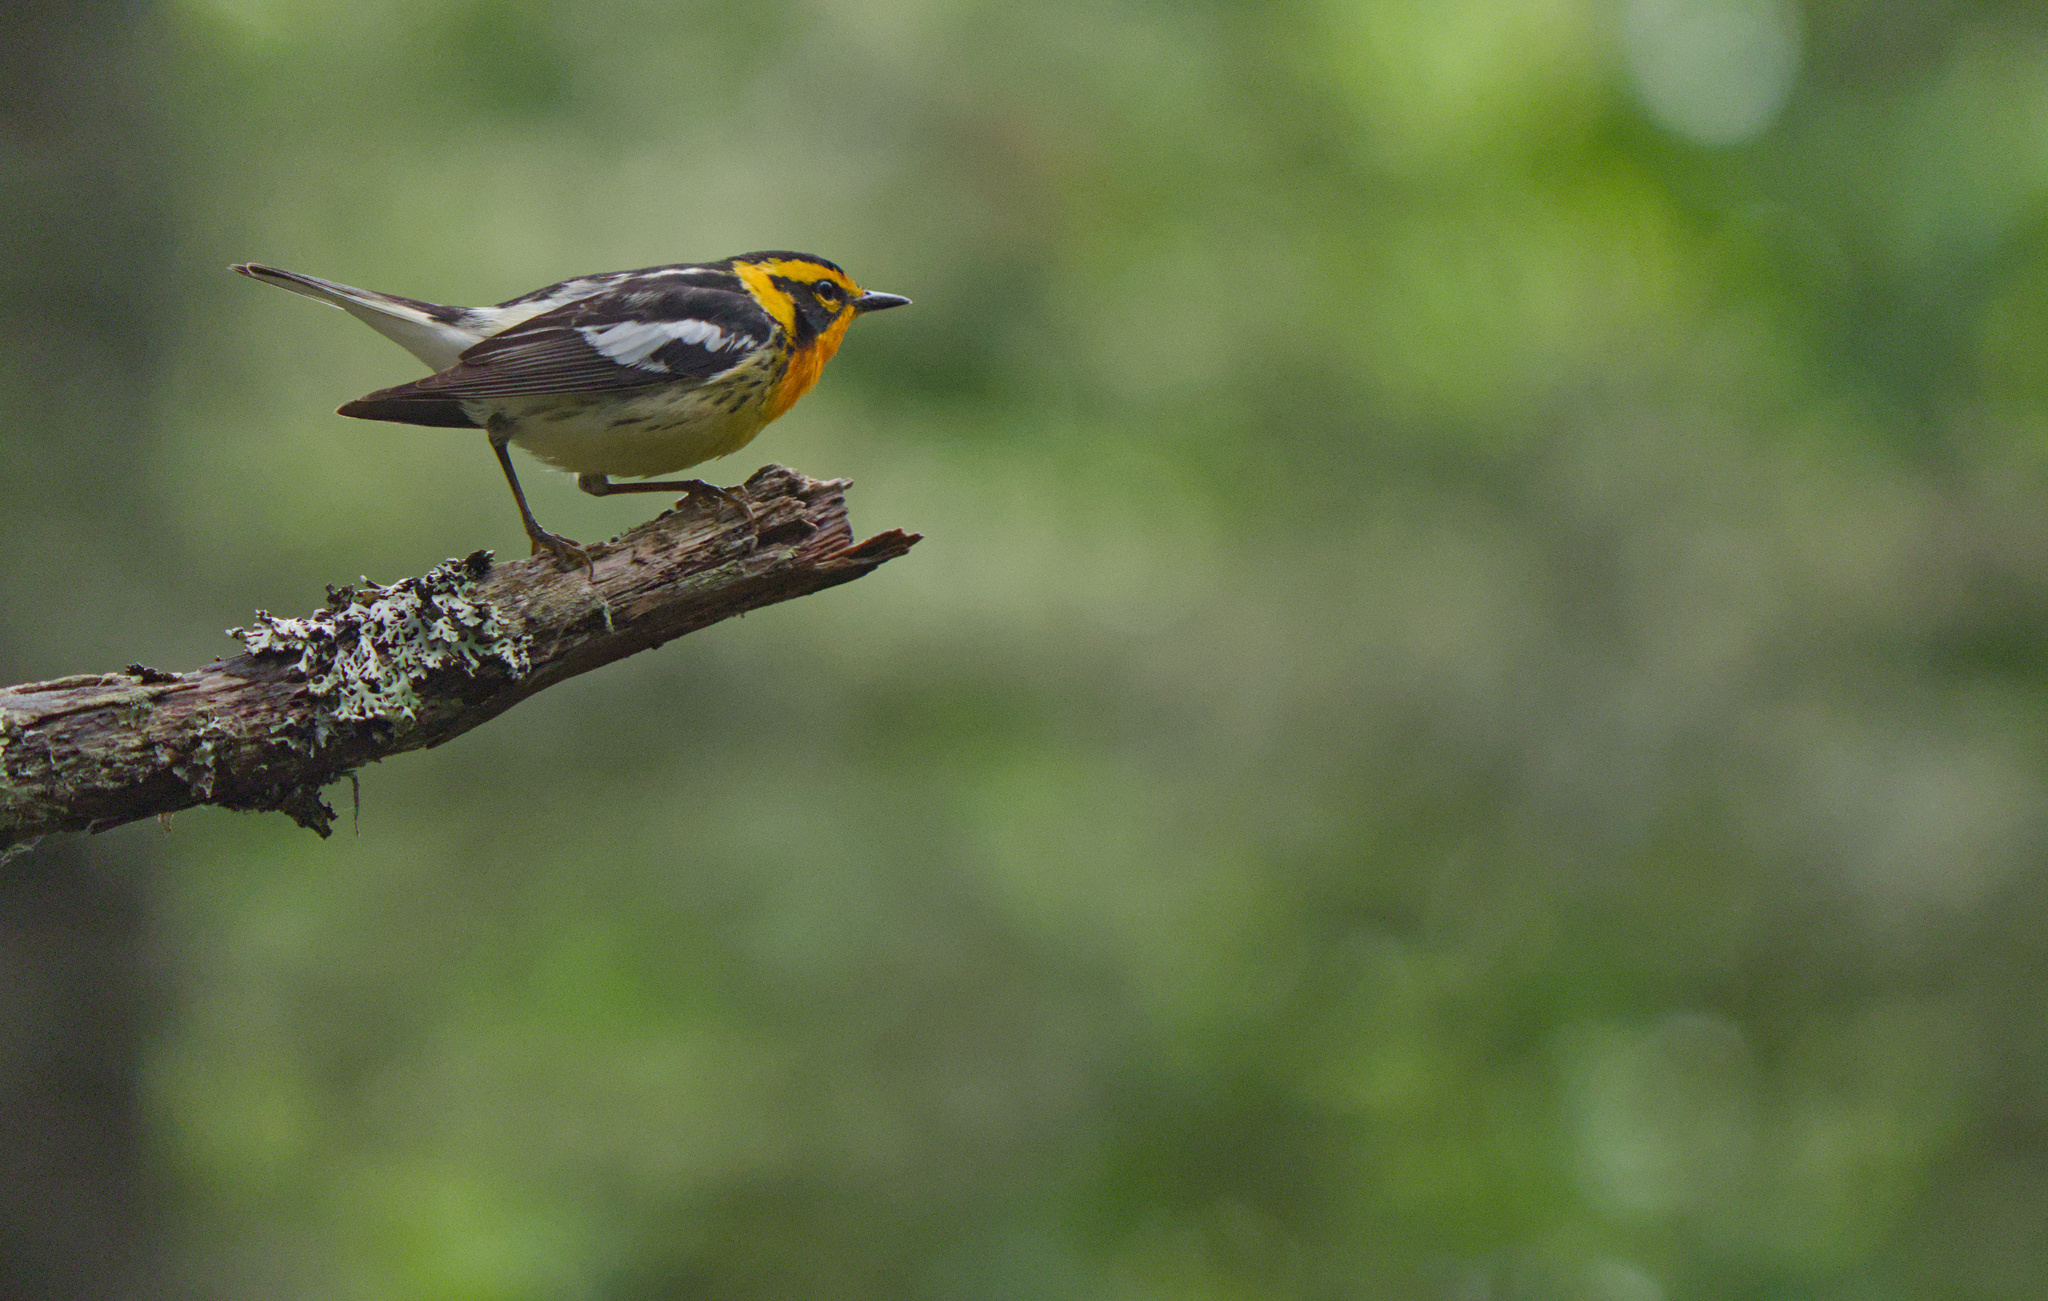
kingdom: Animalia
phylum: Chordata
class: Aves
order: Passeriformes
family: Parulidae
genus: Setophaga
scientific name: Setophaga fusca
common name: Blackburnian warbler
